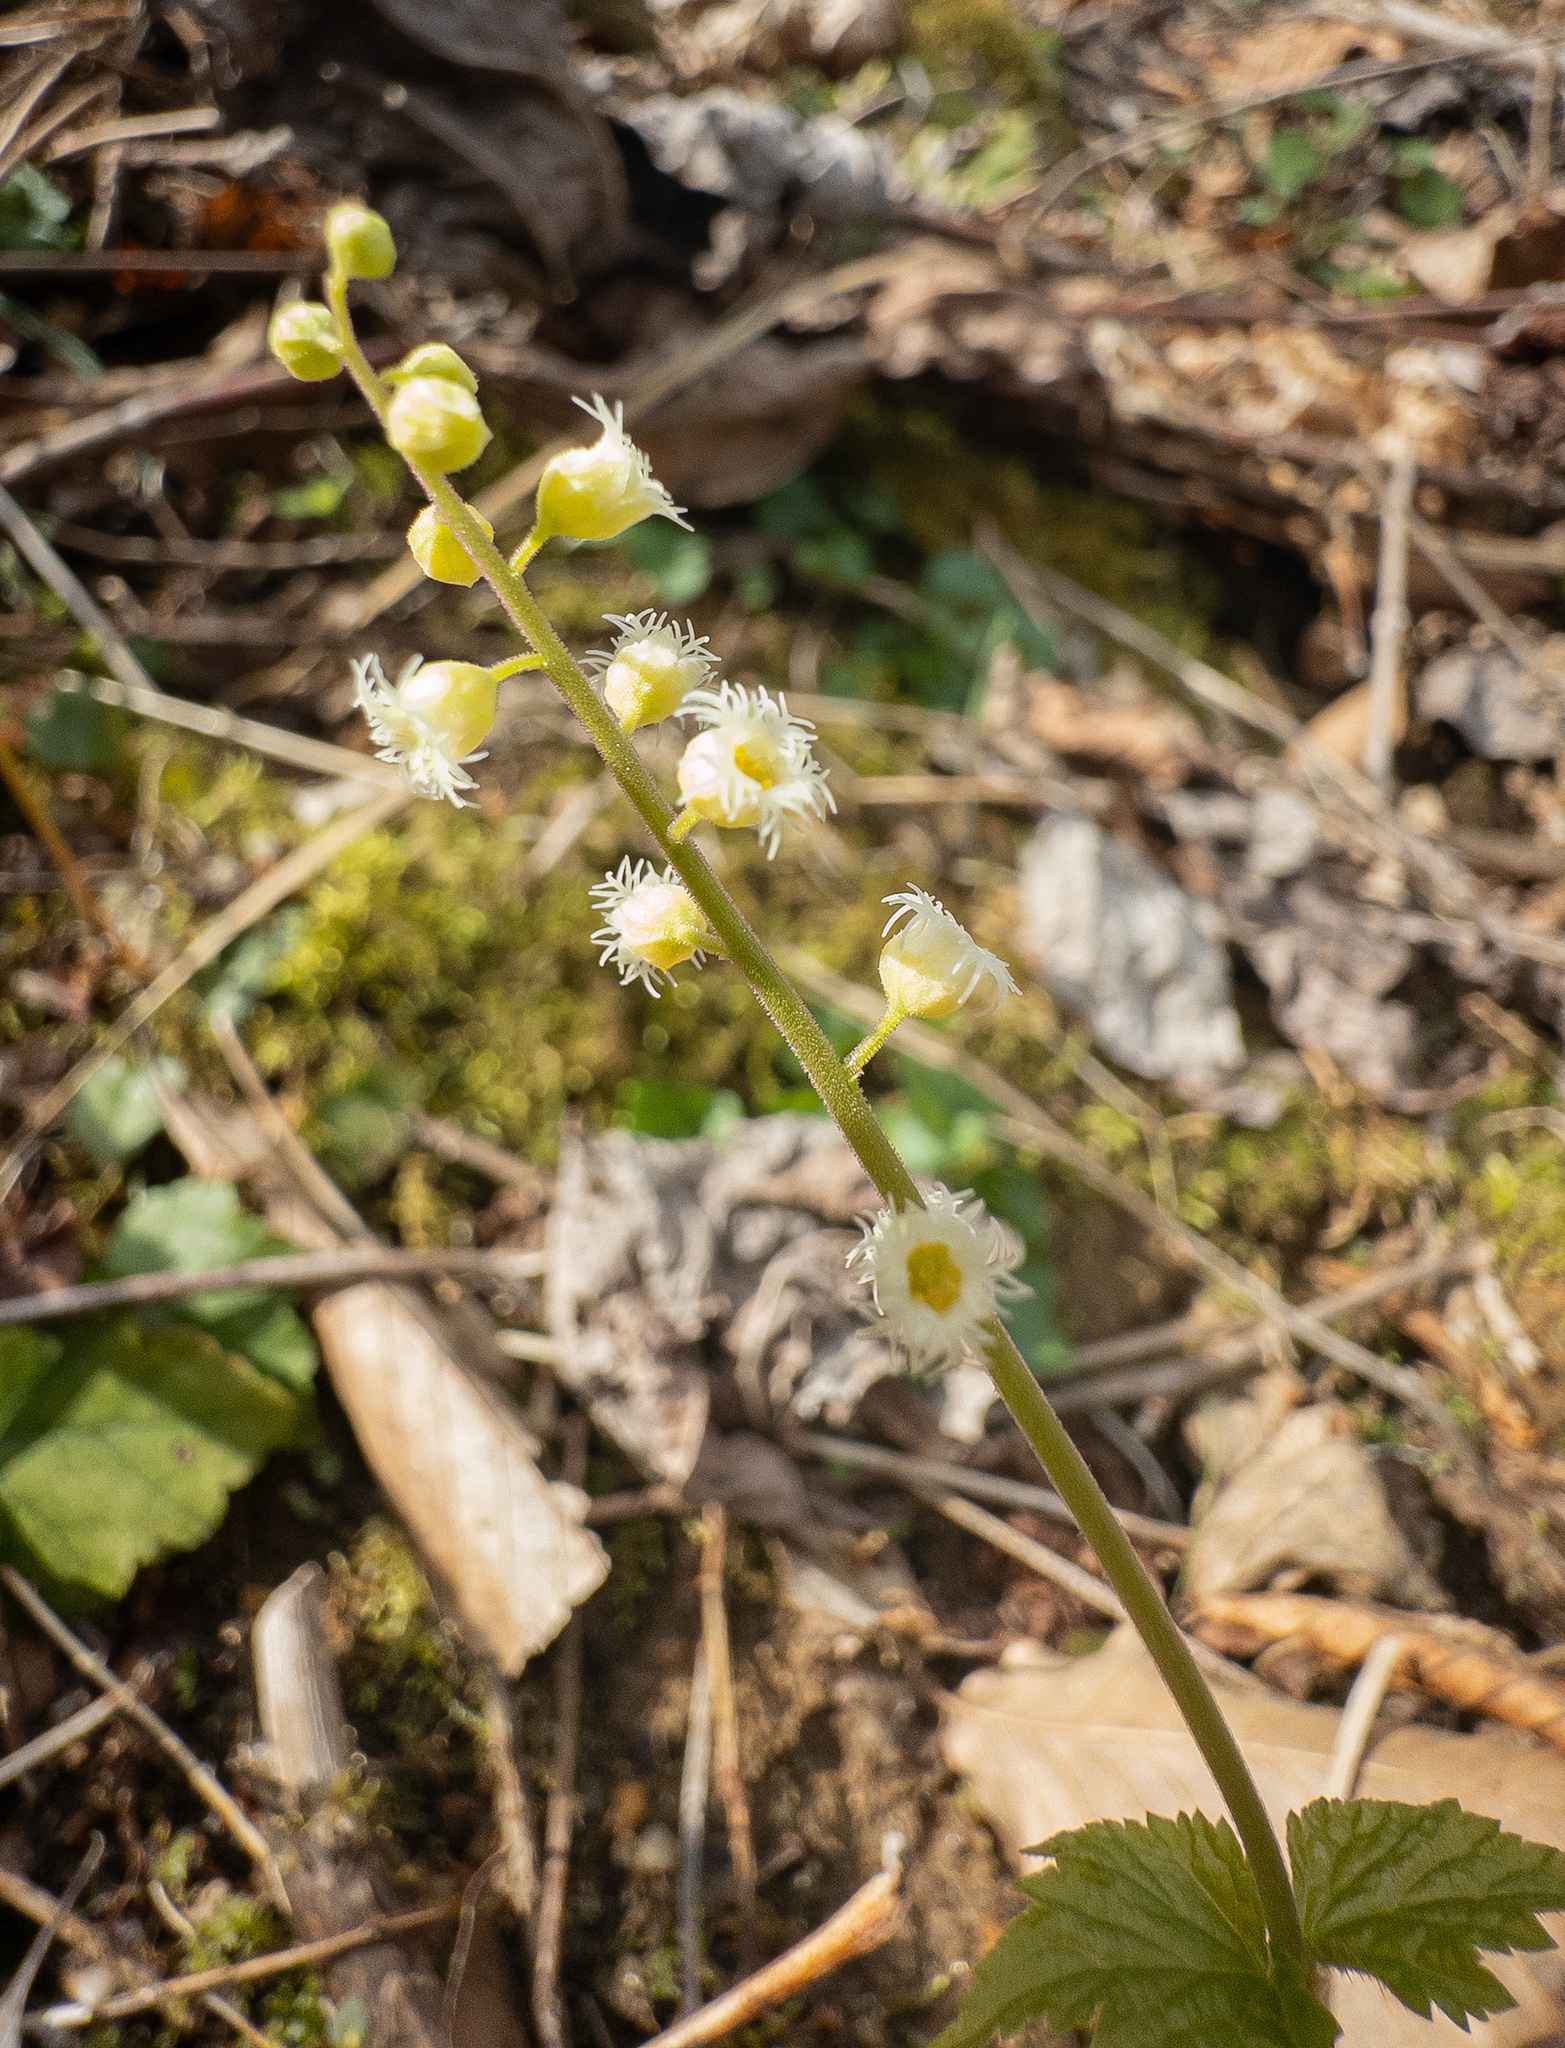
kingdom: Plantae
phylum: Tracheophyta
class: Magnoliopsida
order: Saxifragales
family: Saxifragaceae
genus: Mitella
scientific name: Mitella diphylla
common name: Coolwort
